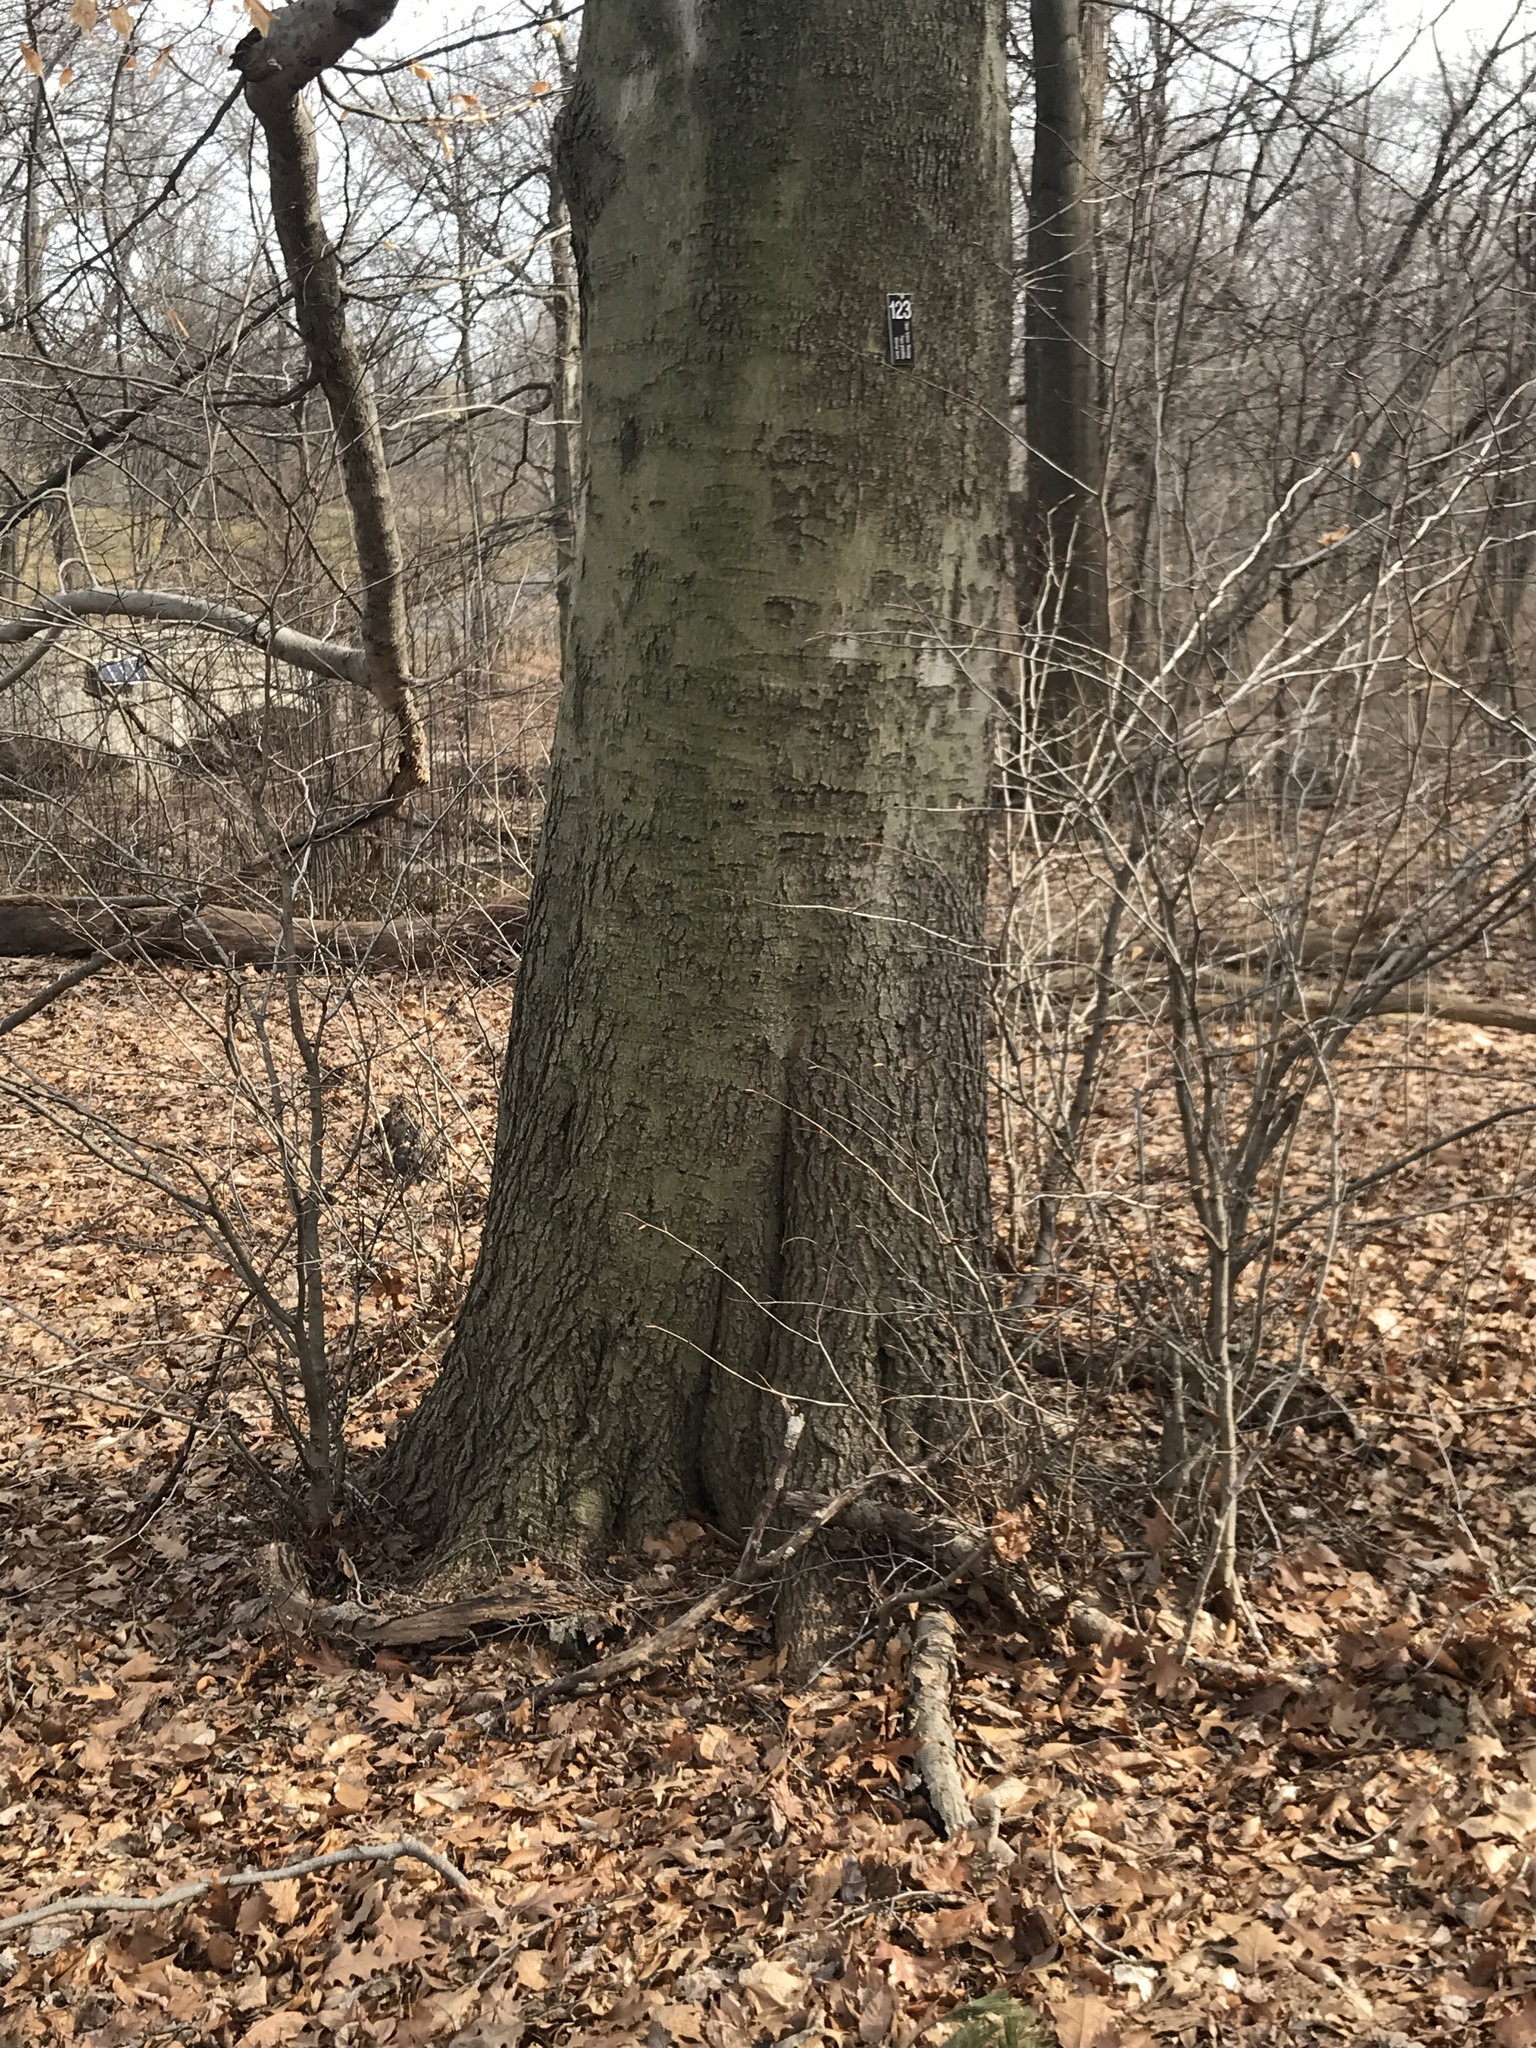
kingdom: Plantae
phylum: Tracheophyta
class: Magnoliopsida
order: Fagales
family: Fagaceae
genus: Fagus
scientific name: Fagus
